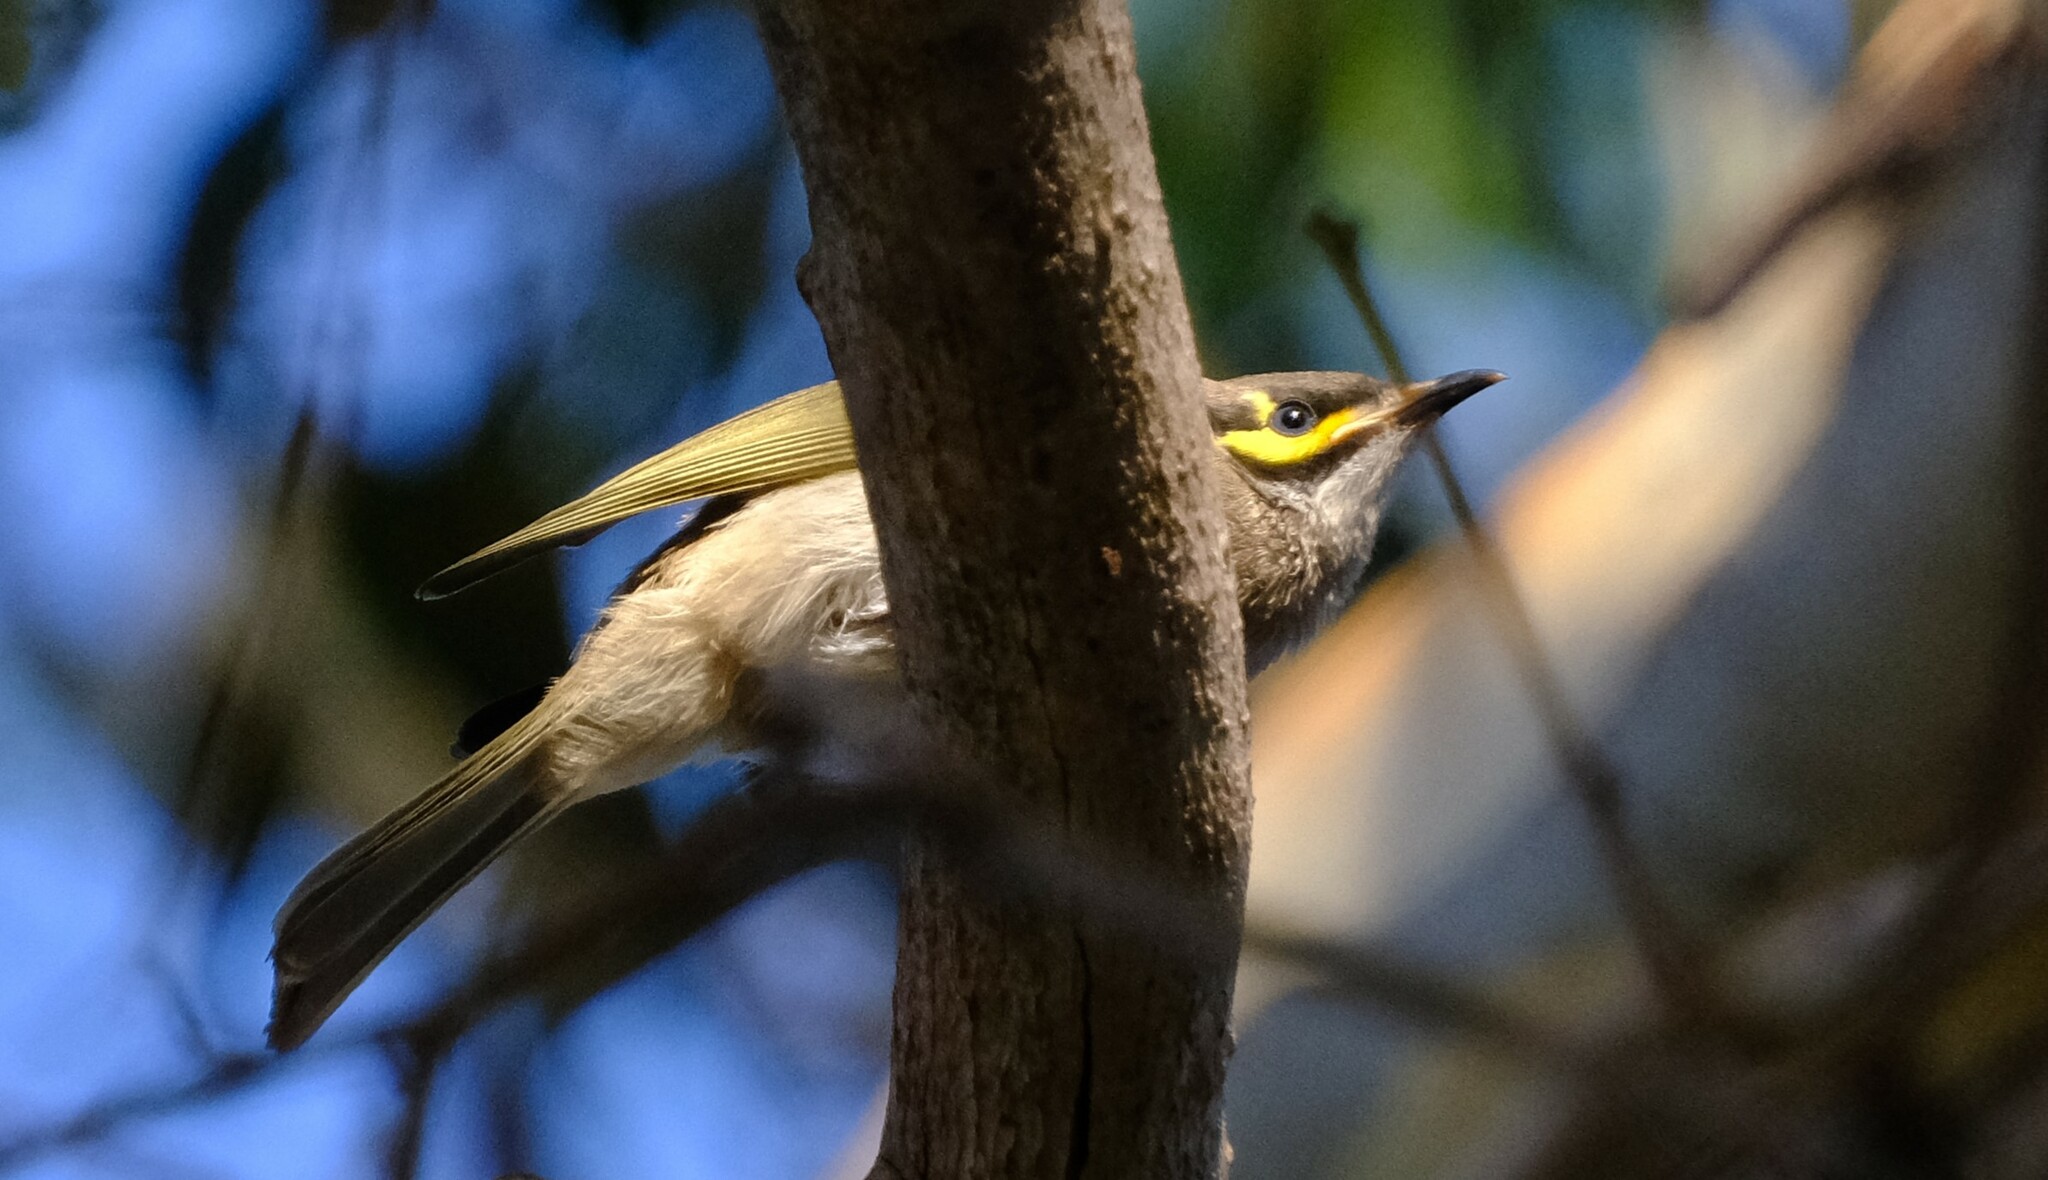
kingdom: Animalia
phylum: Chordata
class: Aves
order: Passeriformes
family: Meliphagidae
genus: Caligavis
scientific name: Caligavis chrysops
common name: Yellow-faced honeyeater
